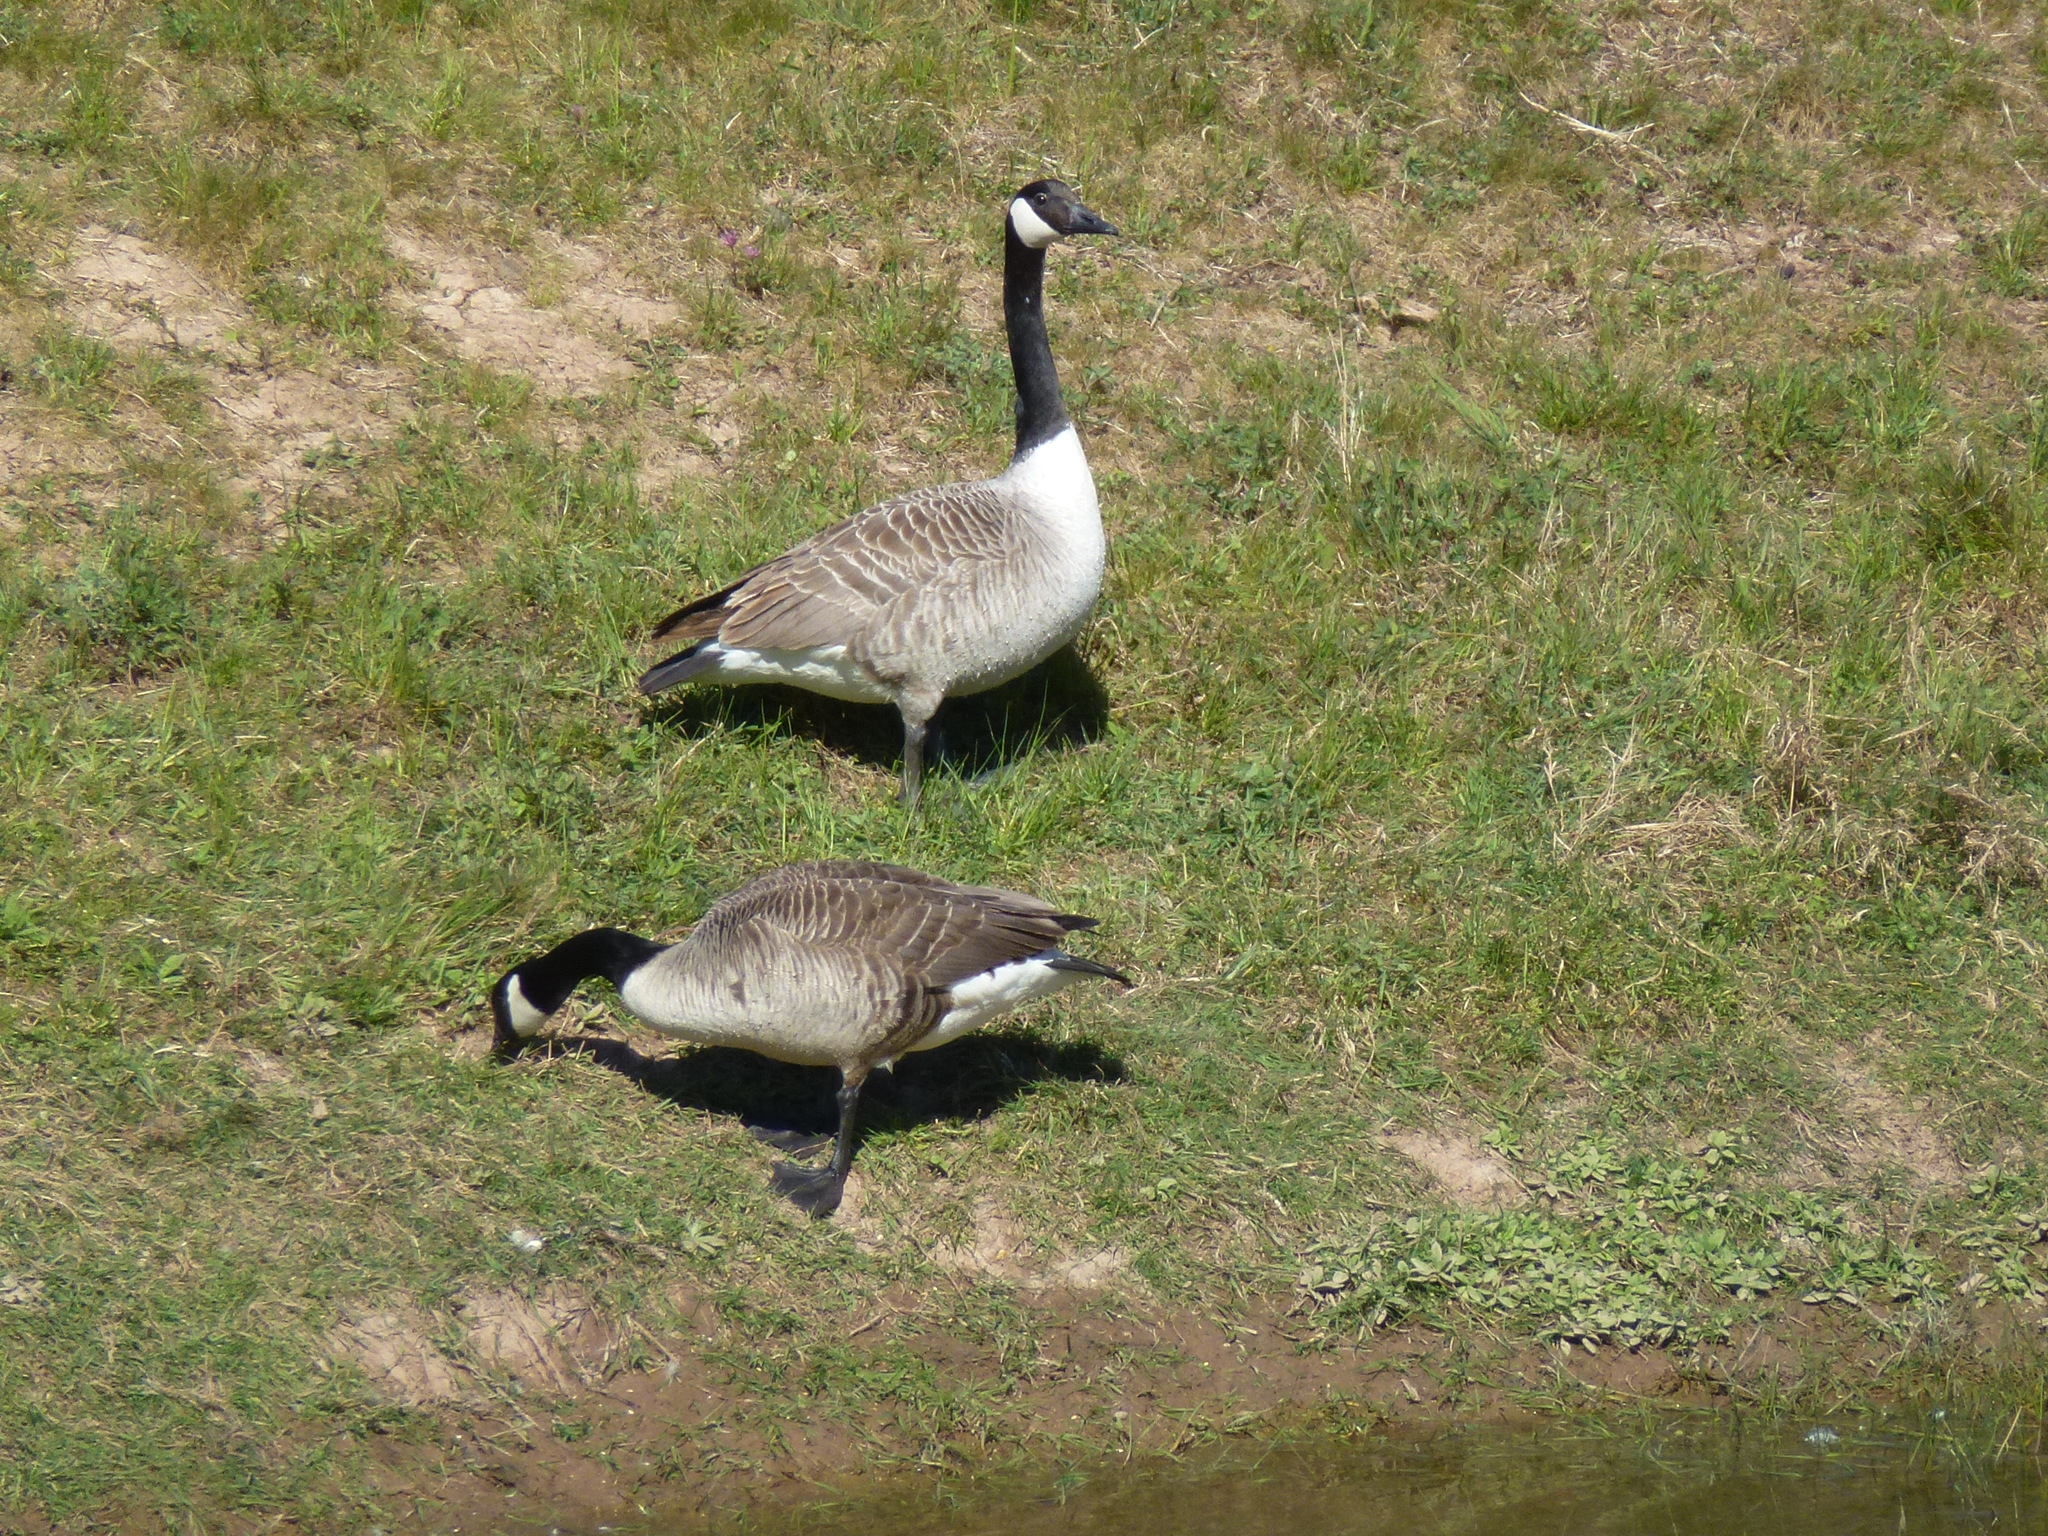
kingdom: Animalia
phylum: Chordata
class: Aves
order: Anseriformes
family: Anatidae
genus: Branta
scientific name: Branta canadensis
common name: Canada goose
